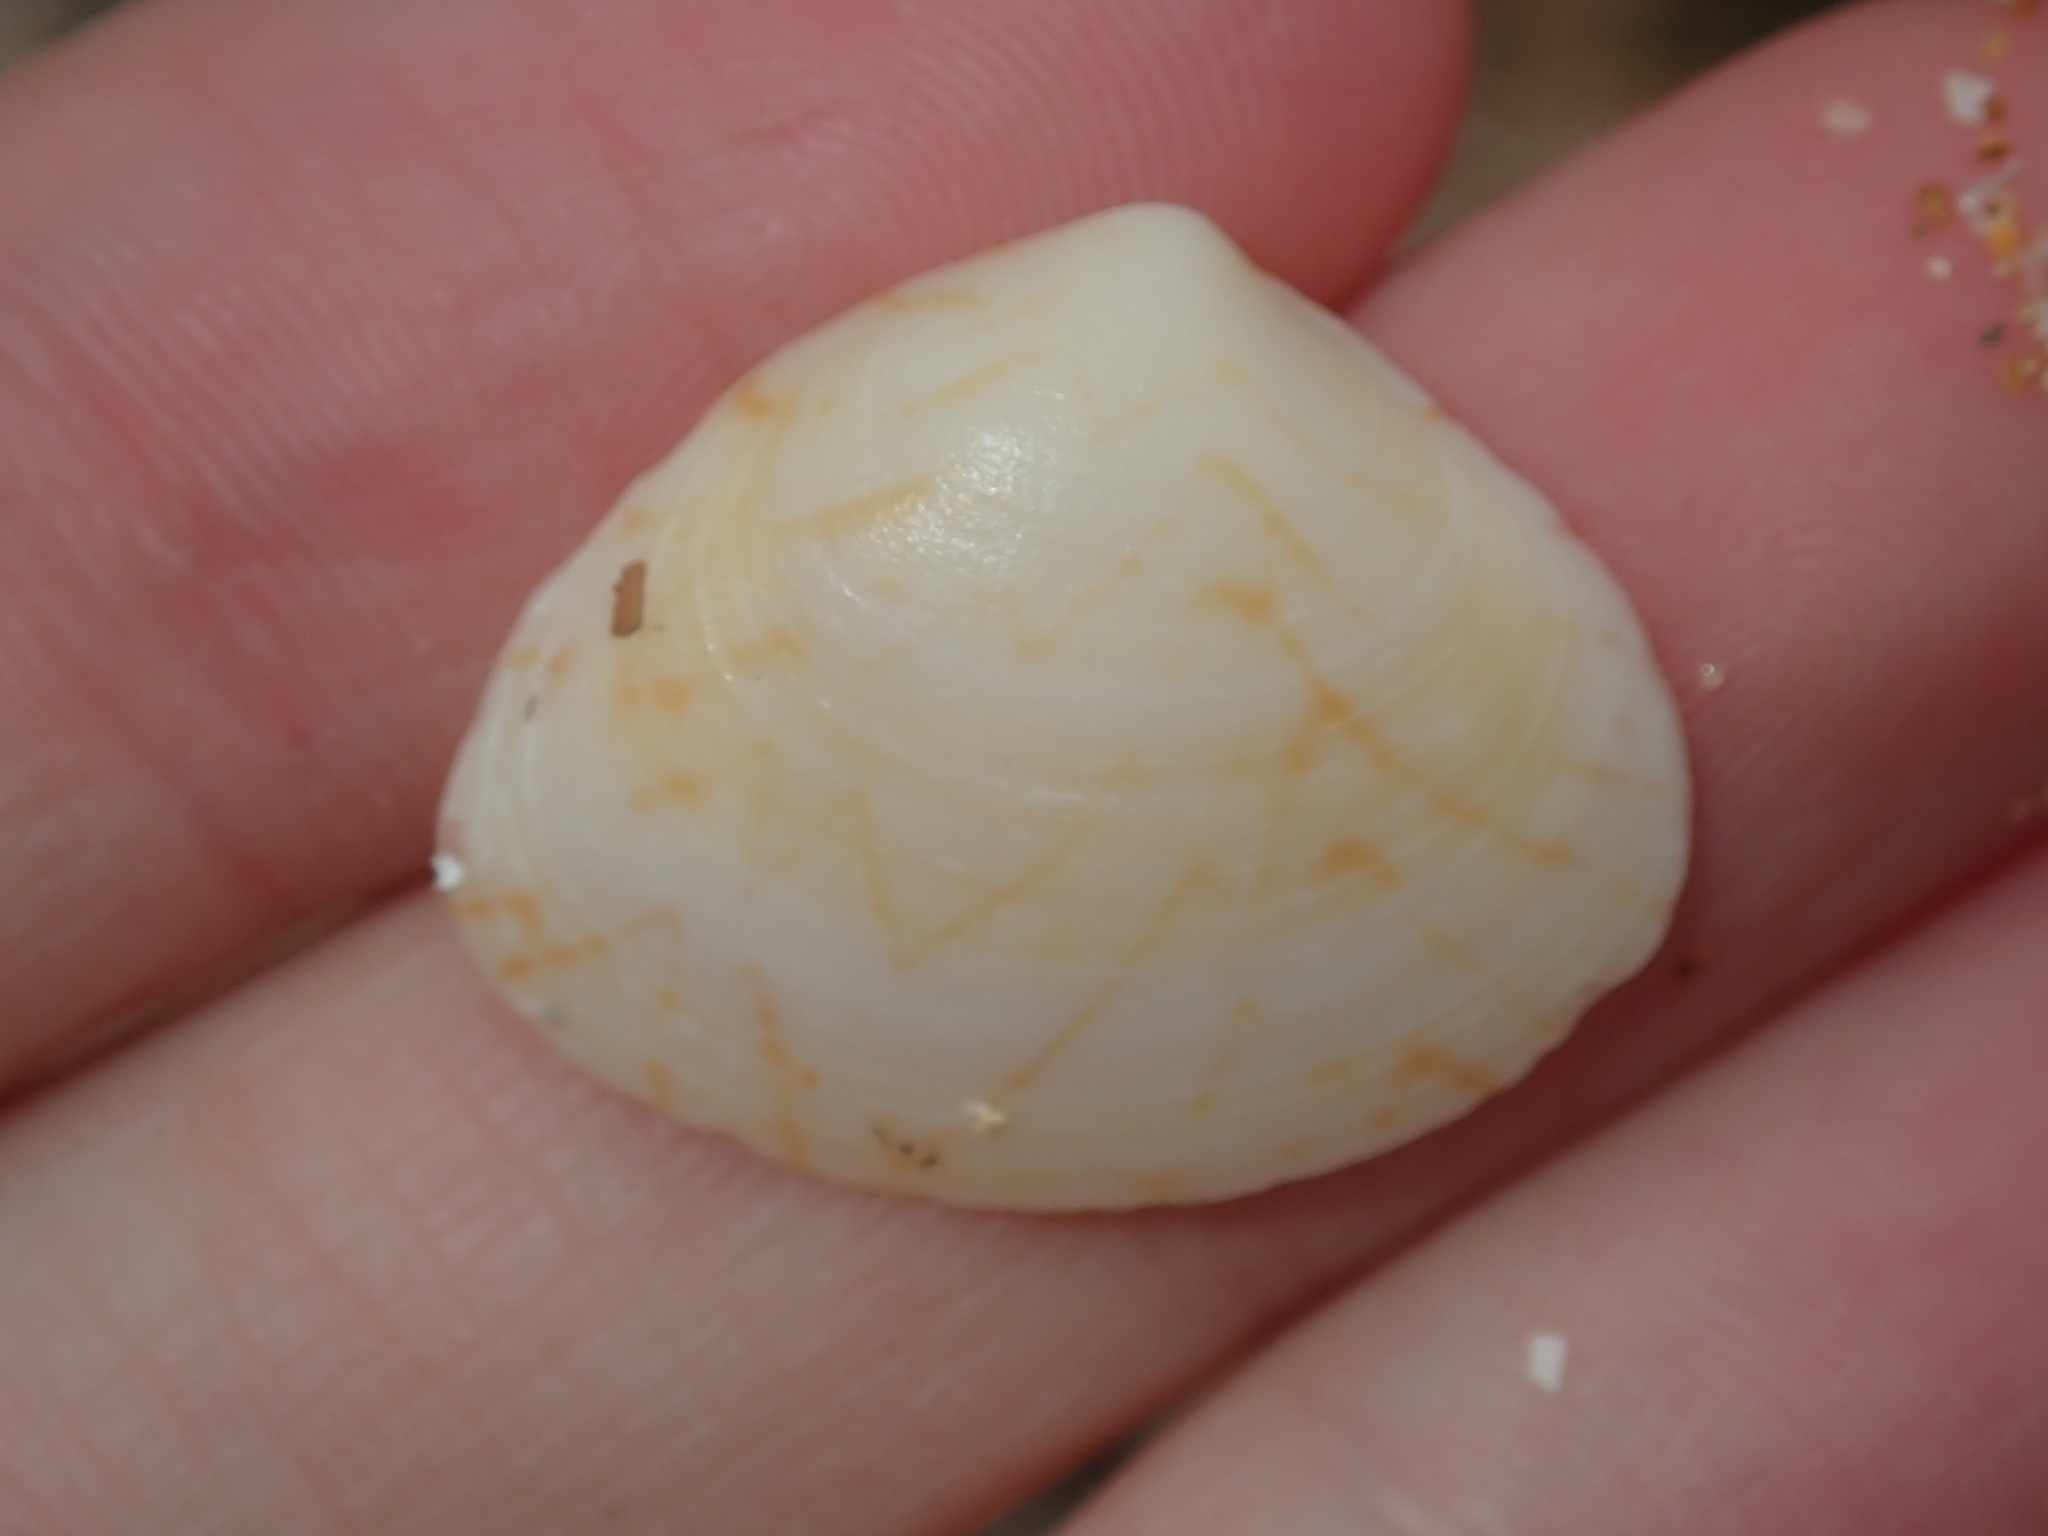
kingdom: Animalia
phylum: Mollusca
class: Bivalvia
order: Venerida
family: Veneridae
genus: Gomphina
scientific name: Gomphina undulosa
